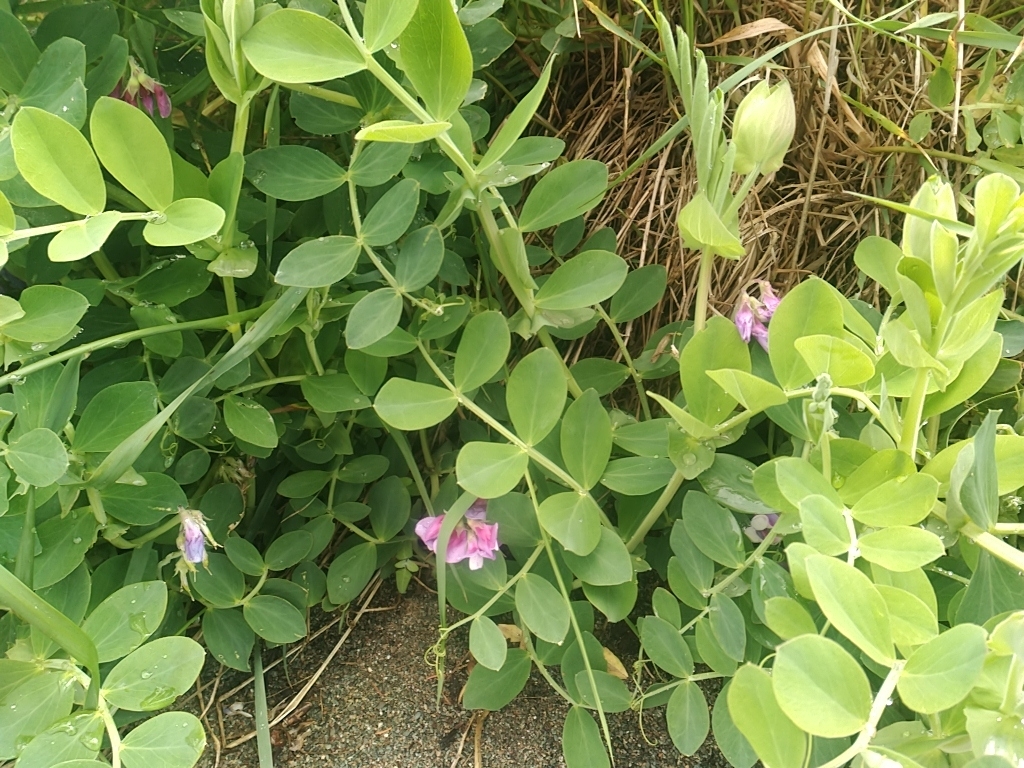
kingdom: Plantae
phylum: Tracheophyta
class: Magnoliopsida
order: Fabales
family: Fabaceae
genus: Lathyrus
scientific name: Lathyrus japonicus
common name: Sea pea
